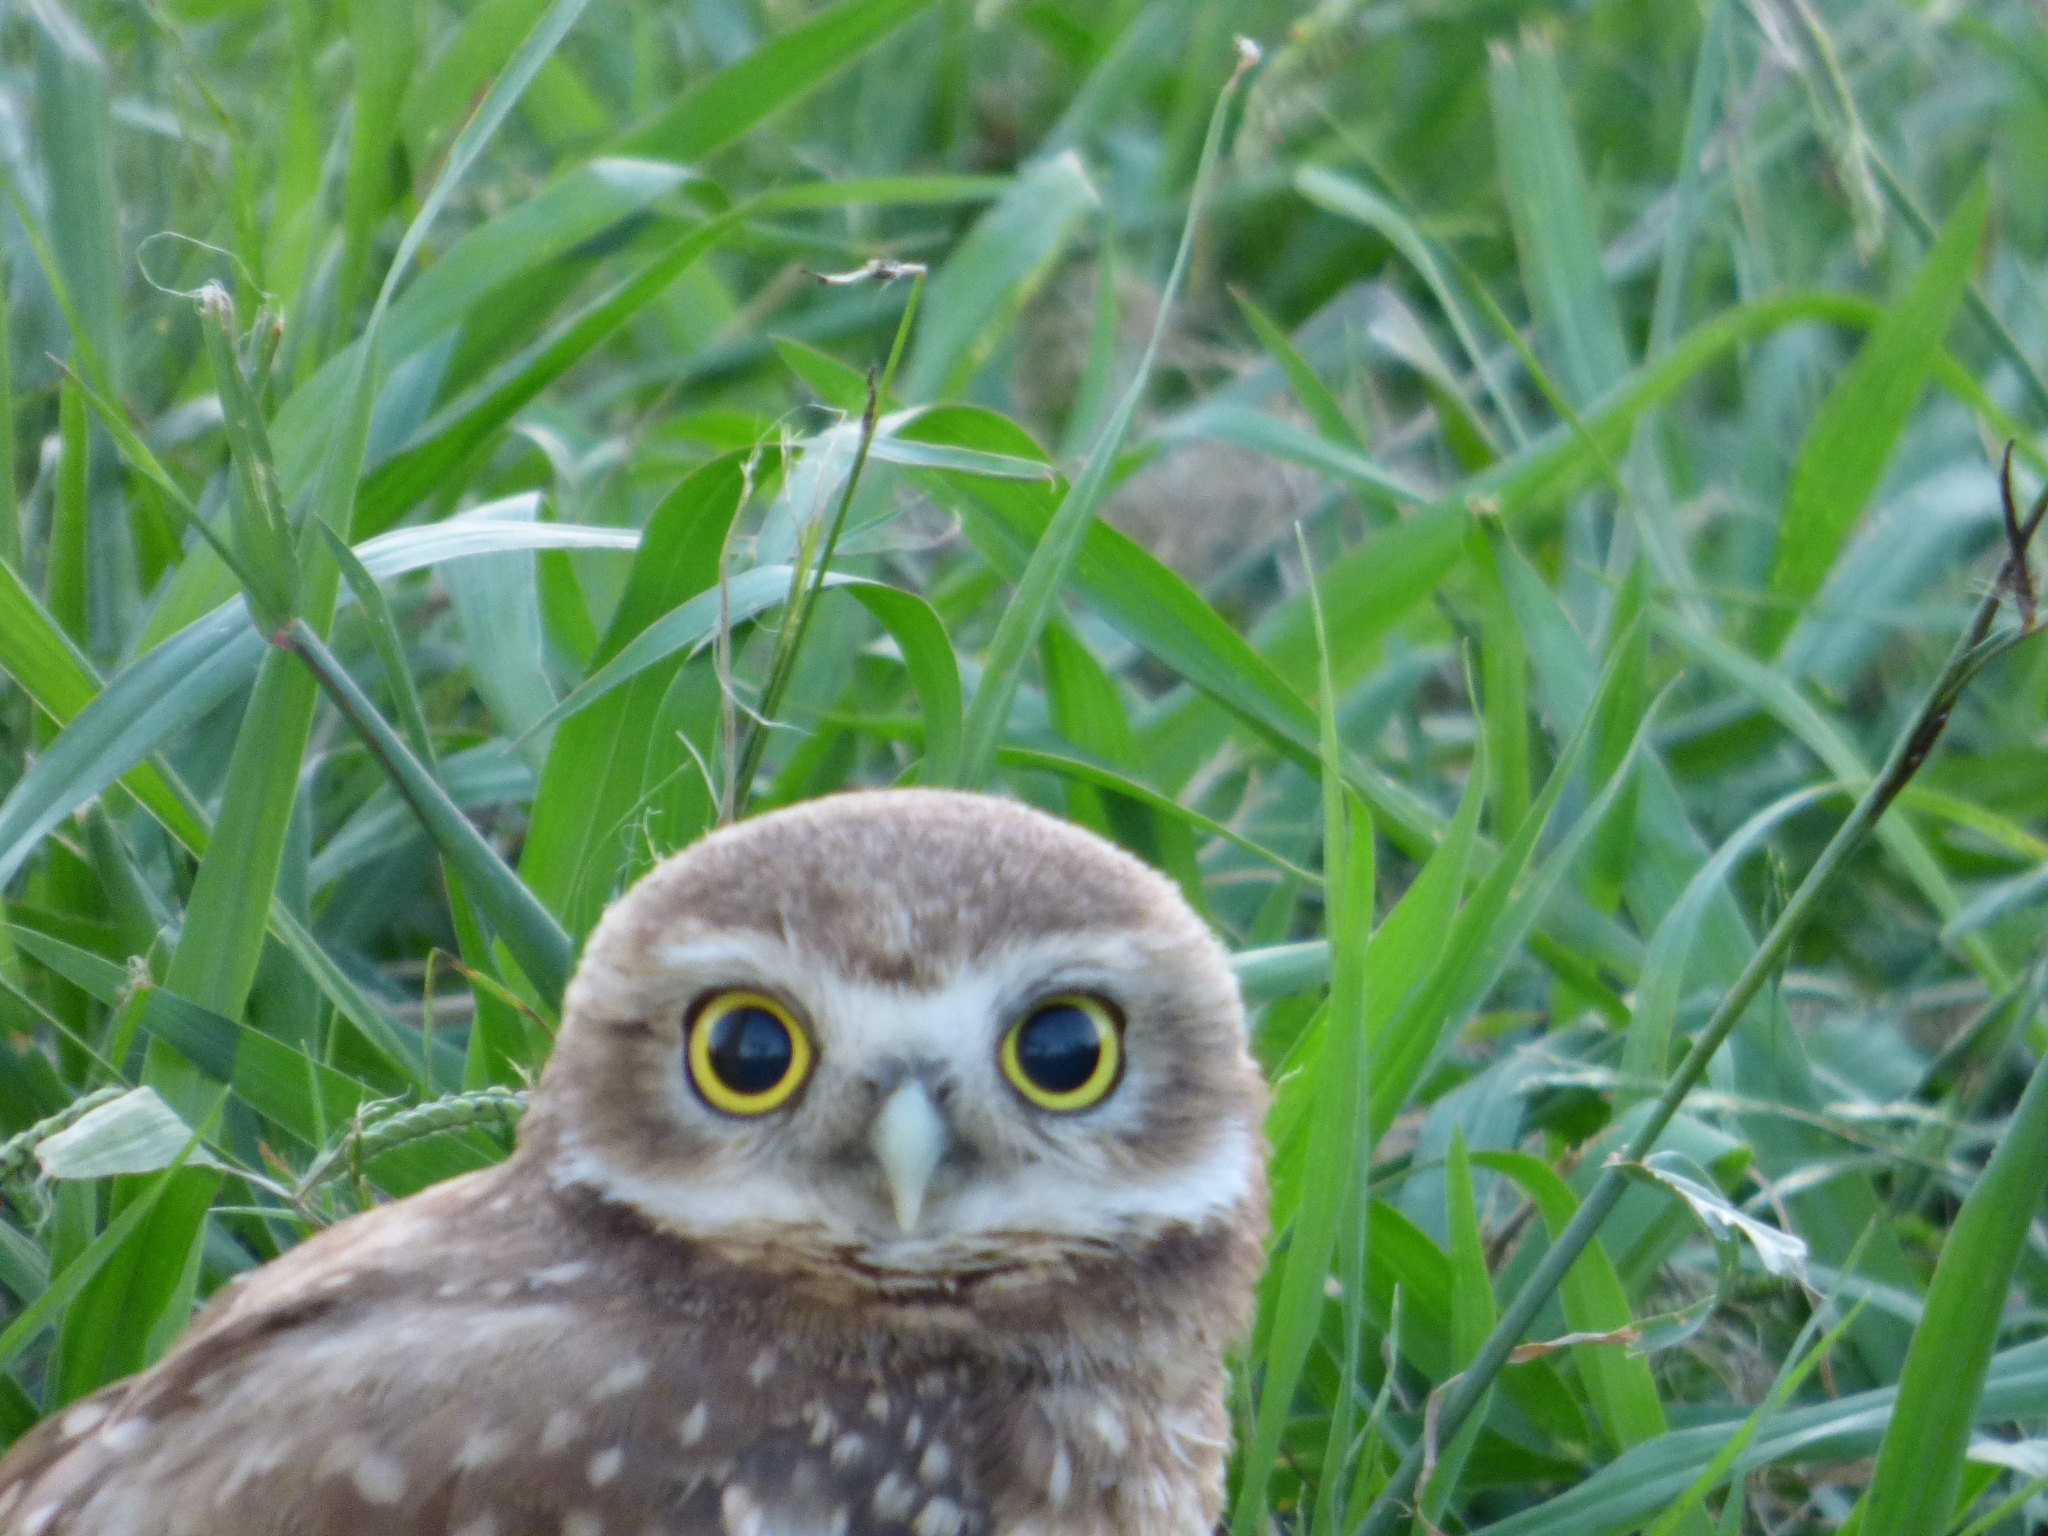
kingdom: Animalia
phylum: Chordata
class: Aves
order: Strigiformes
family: Strigidae
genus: Athene
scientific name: Athene cunicularia
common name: Burrowing owl
